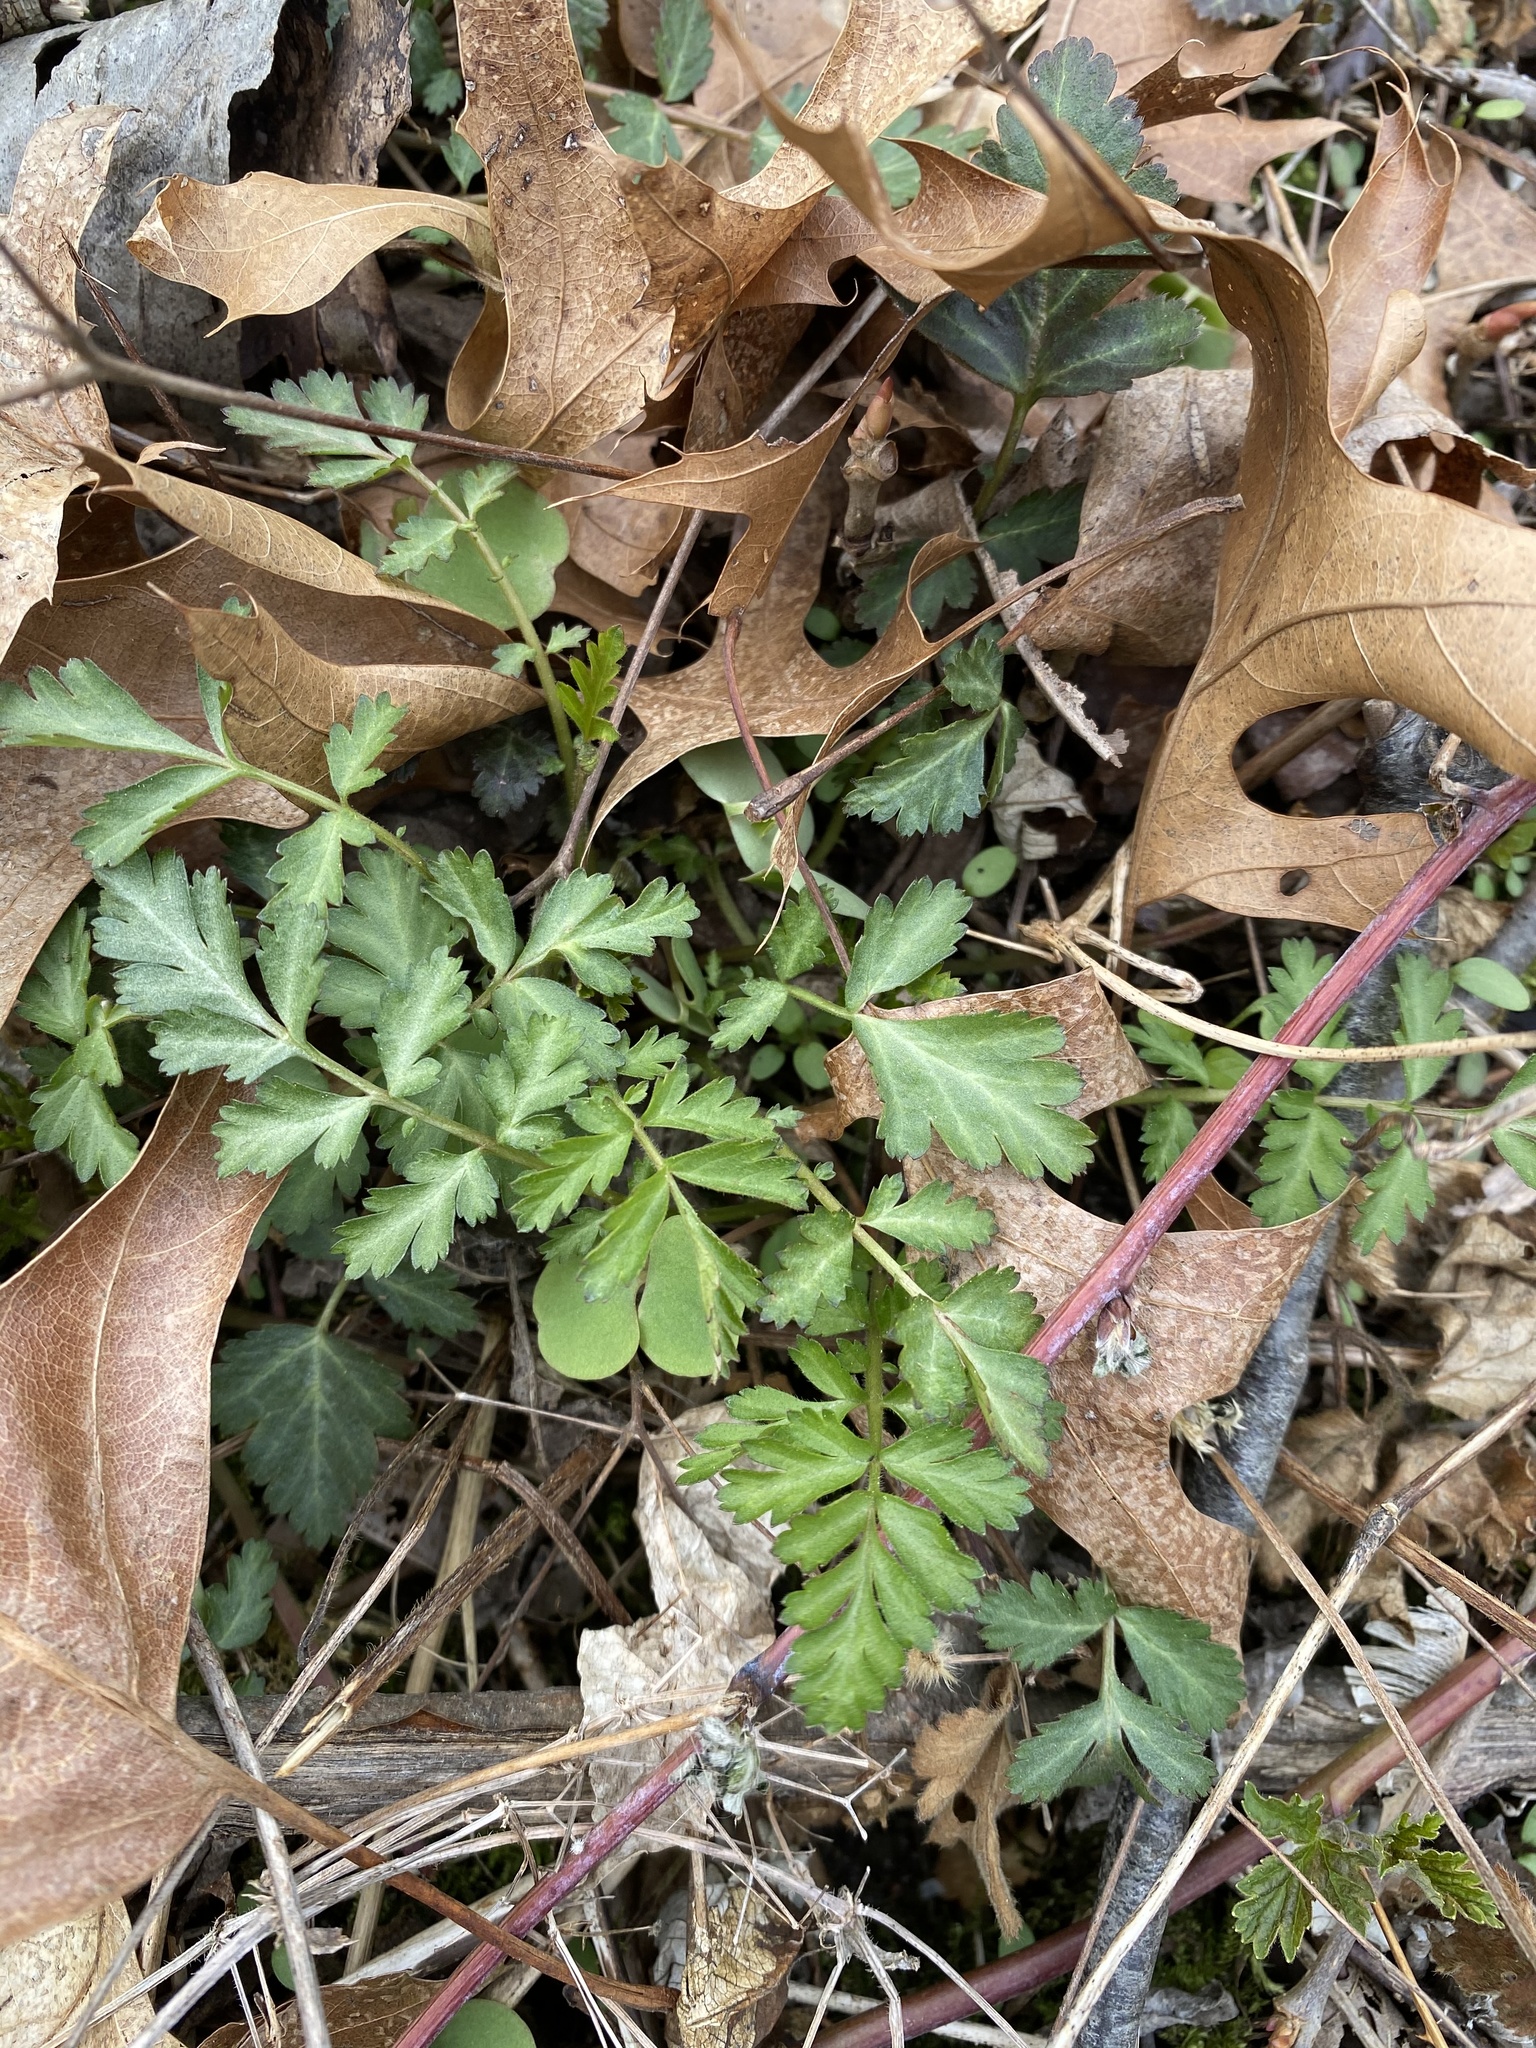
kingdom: Plantae
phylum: Tracheophyta
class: Magnoliopsida
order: Rosales
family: Rosaceae
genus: Geum
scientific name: Geum canadense
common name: White avens
